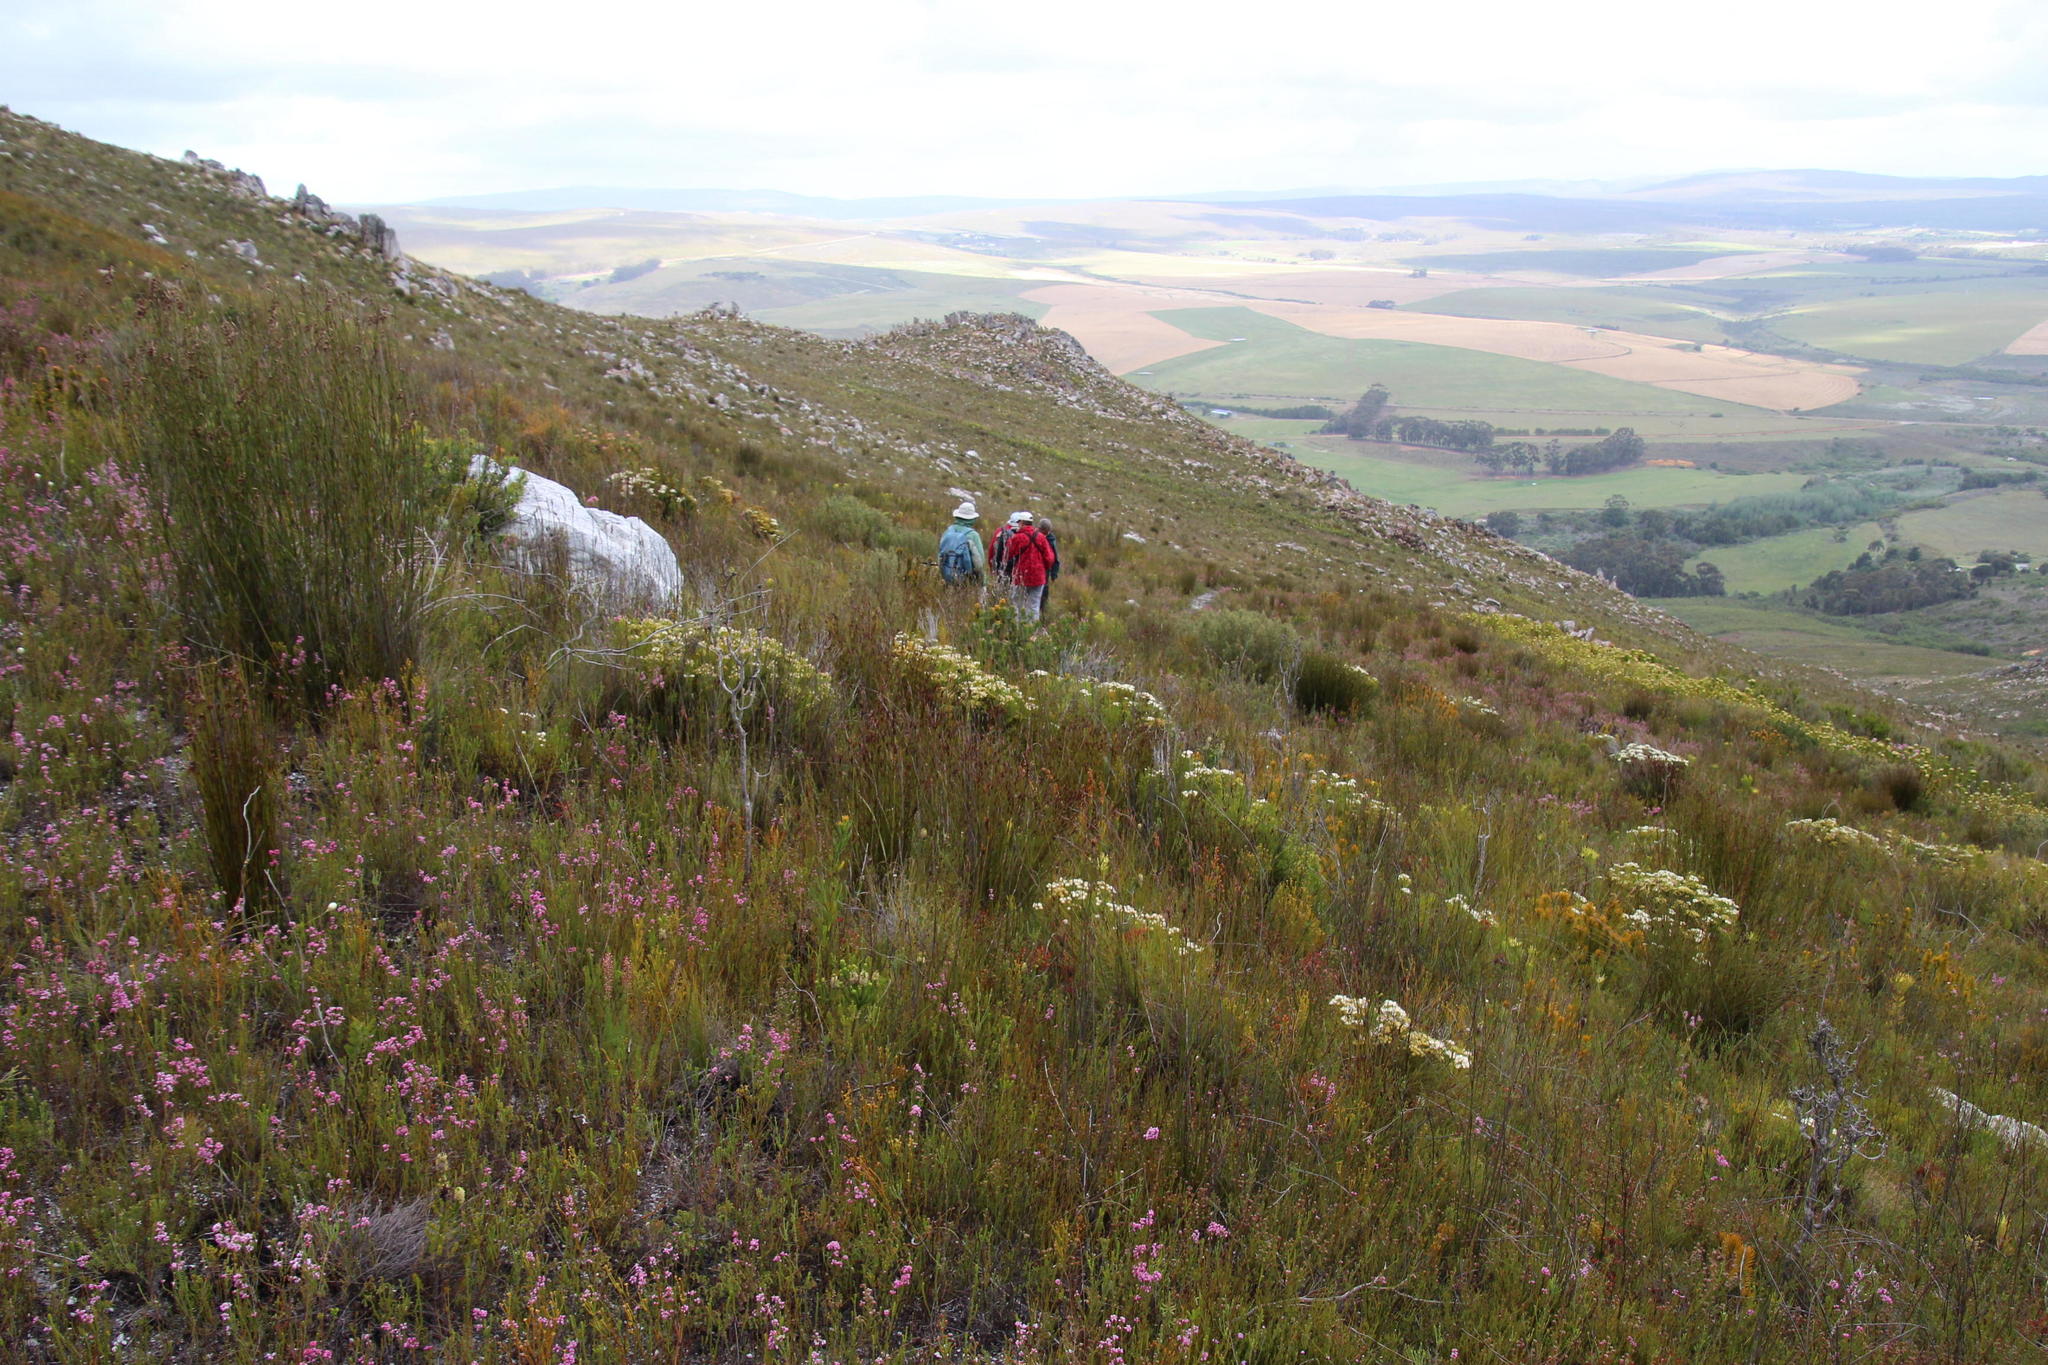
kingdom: Plantae
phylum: Tracheophyta
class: Magnoliopsida
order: Bruniales
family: Bruniaceae
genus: Brunia
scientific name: Brunia paleacea
